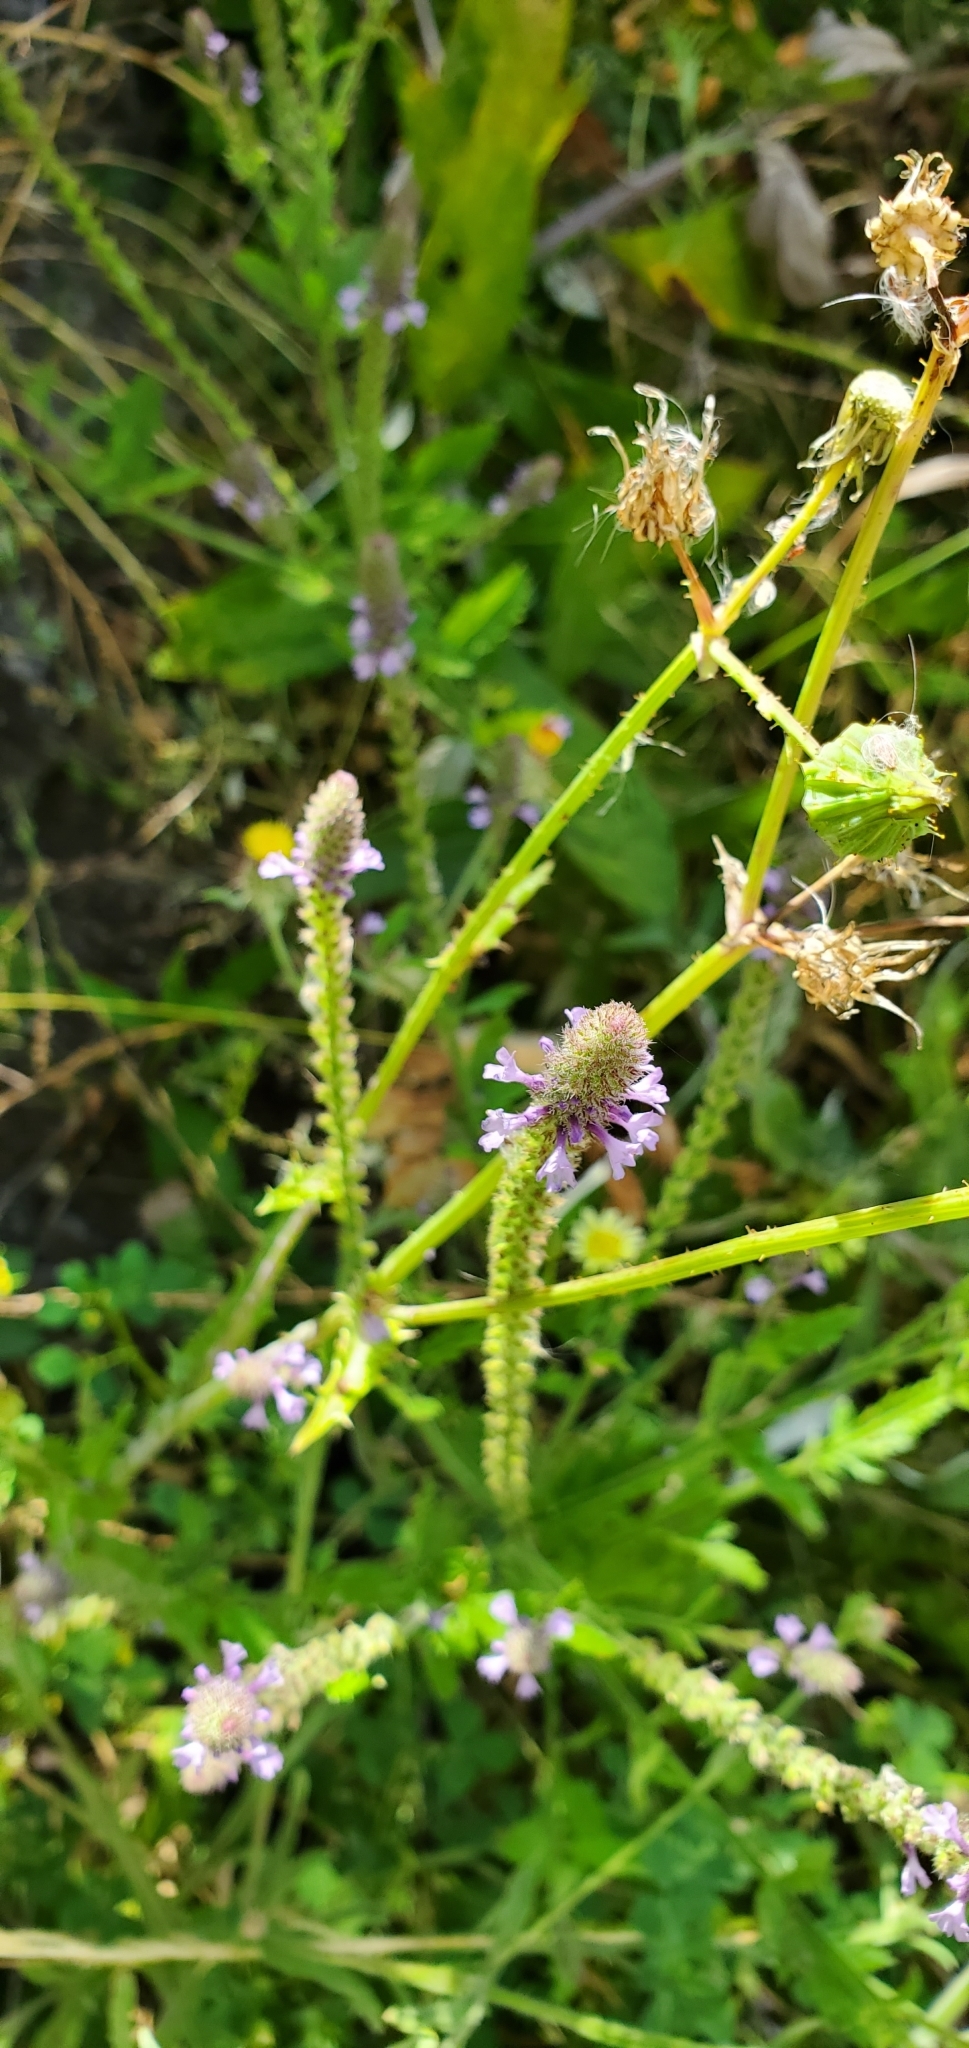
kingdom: Plantae
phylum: Tracheophyta
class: Magnoliopsida
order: Lamiales
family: Verbenaceae
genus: Verbena
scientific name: Verbena lasiostachys
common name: Vervain
